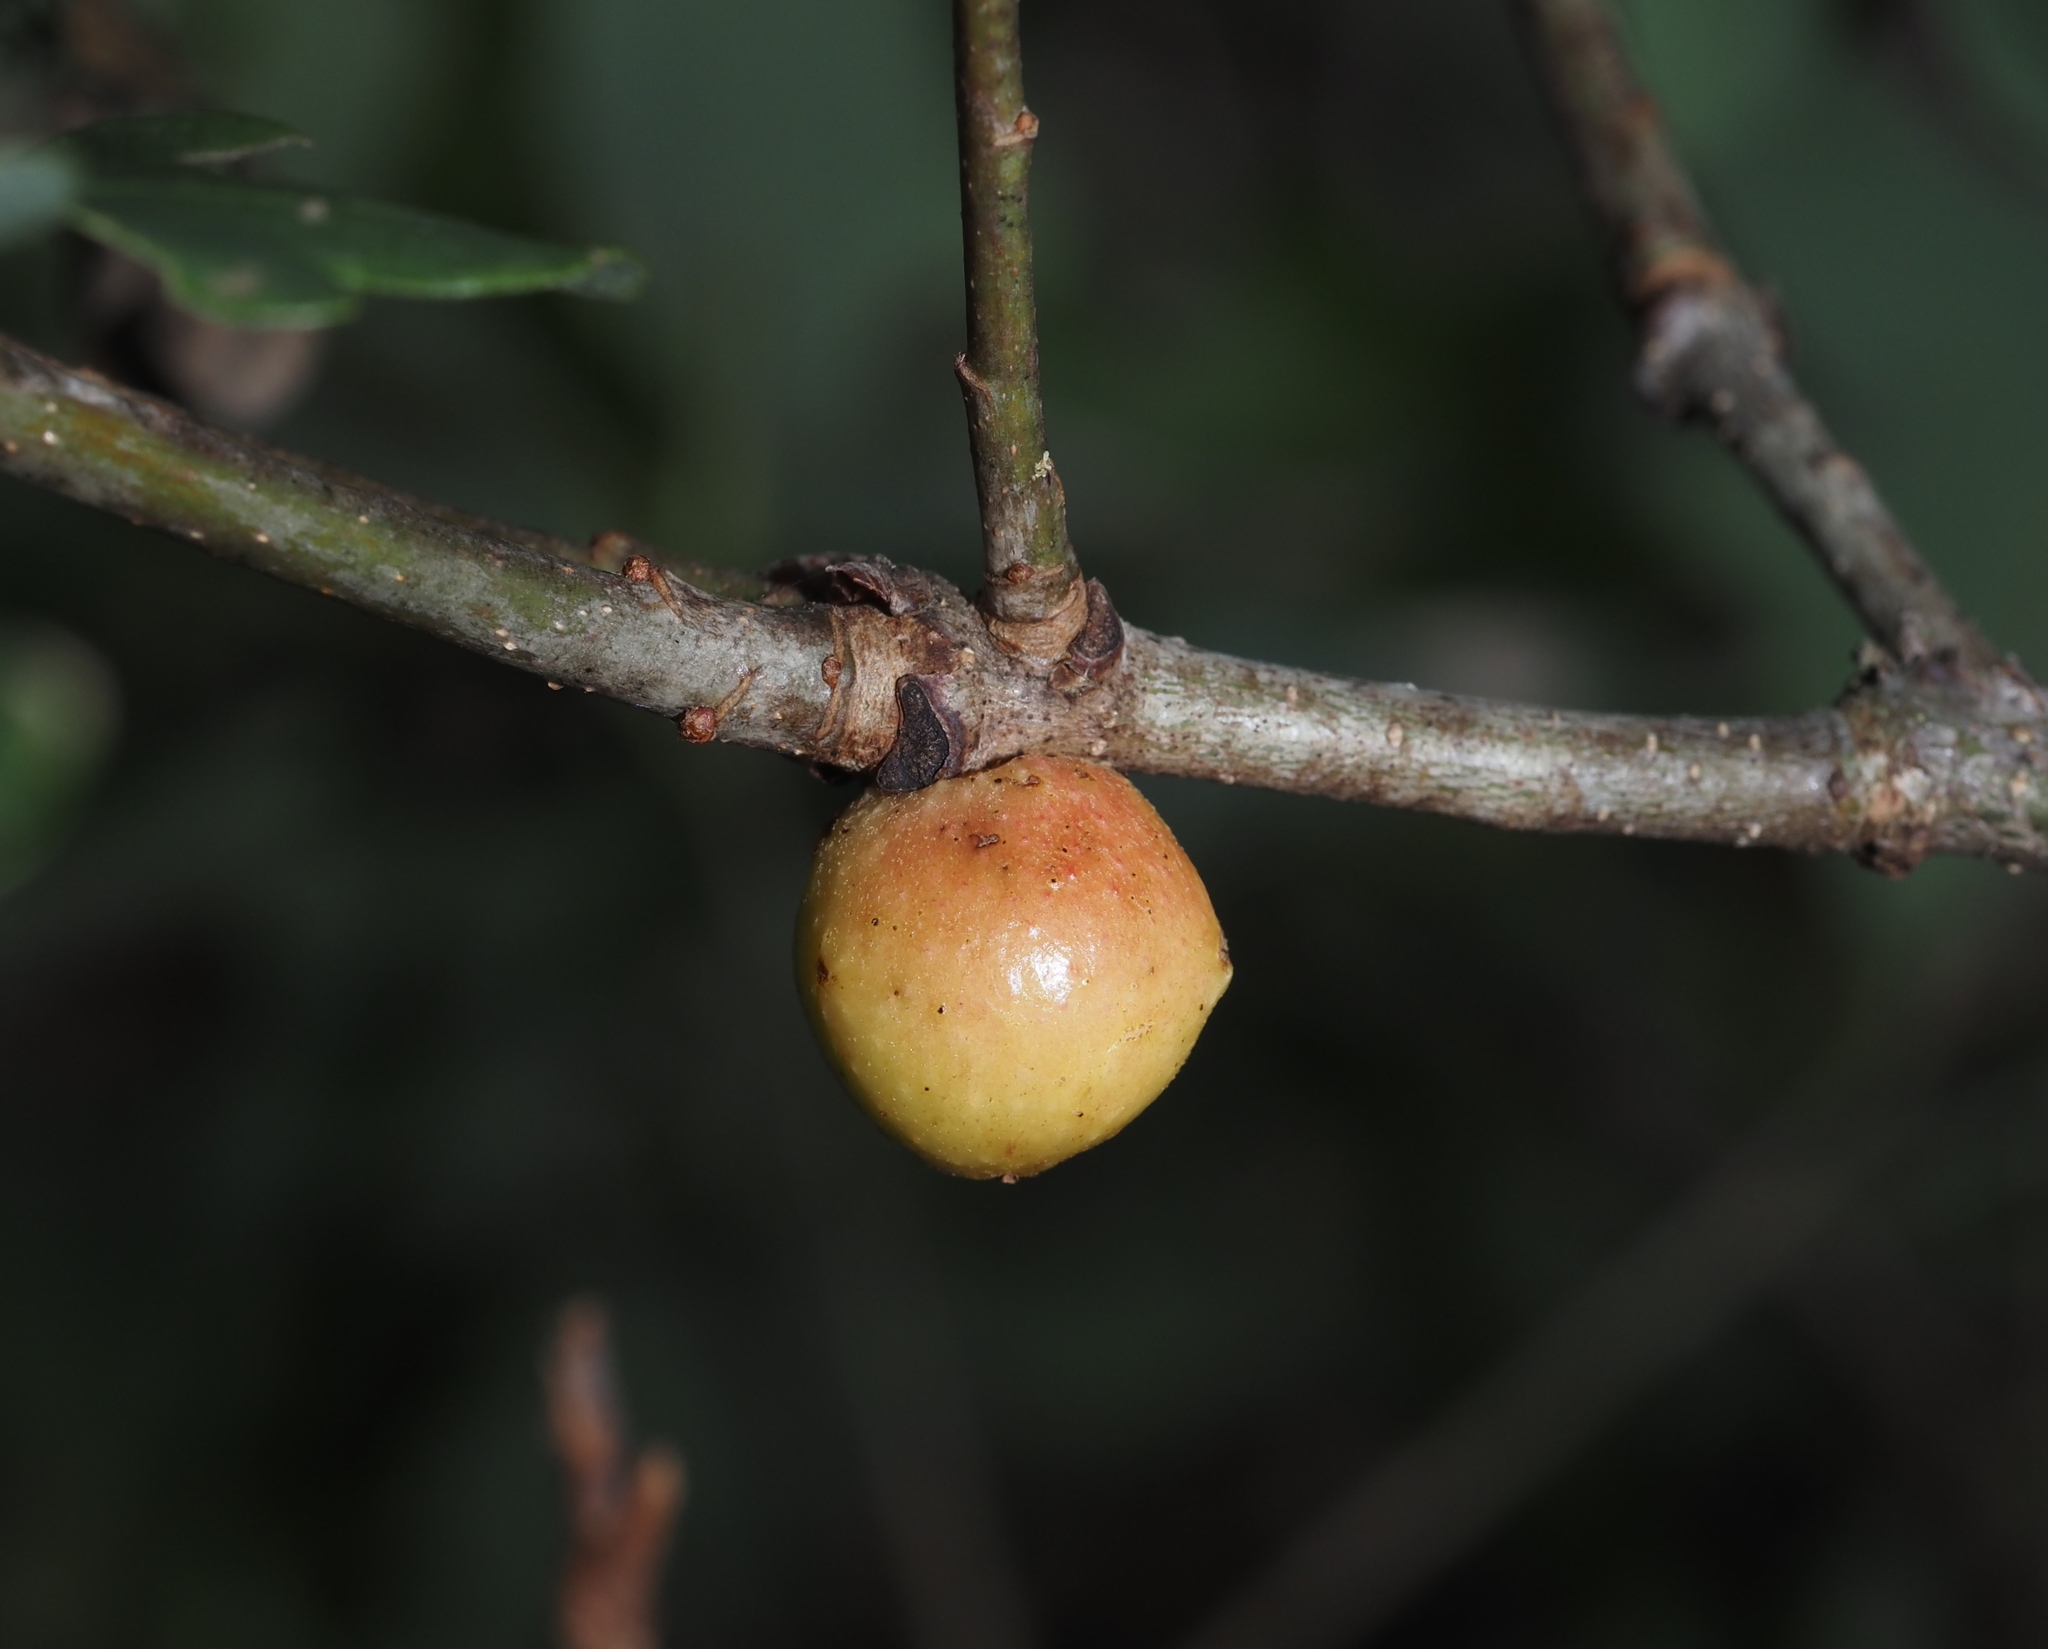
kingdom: Animalia
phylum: Arthropoda
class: Insecta
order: Hymenoptera
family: Cynipidae
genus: Disholcaspis
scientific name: Disholcaspis quercusglobulus
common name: Round bullet gall wasp
